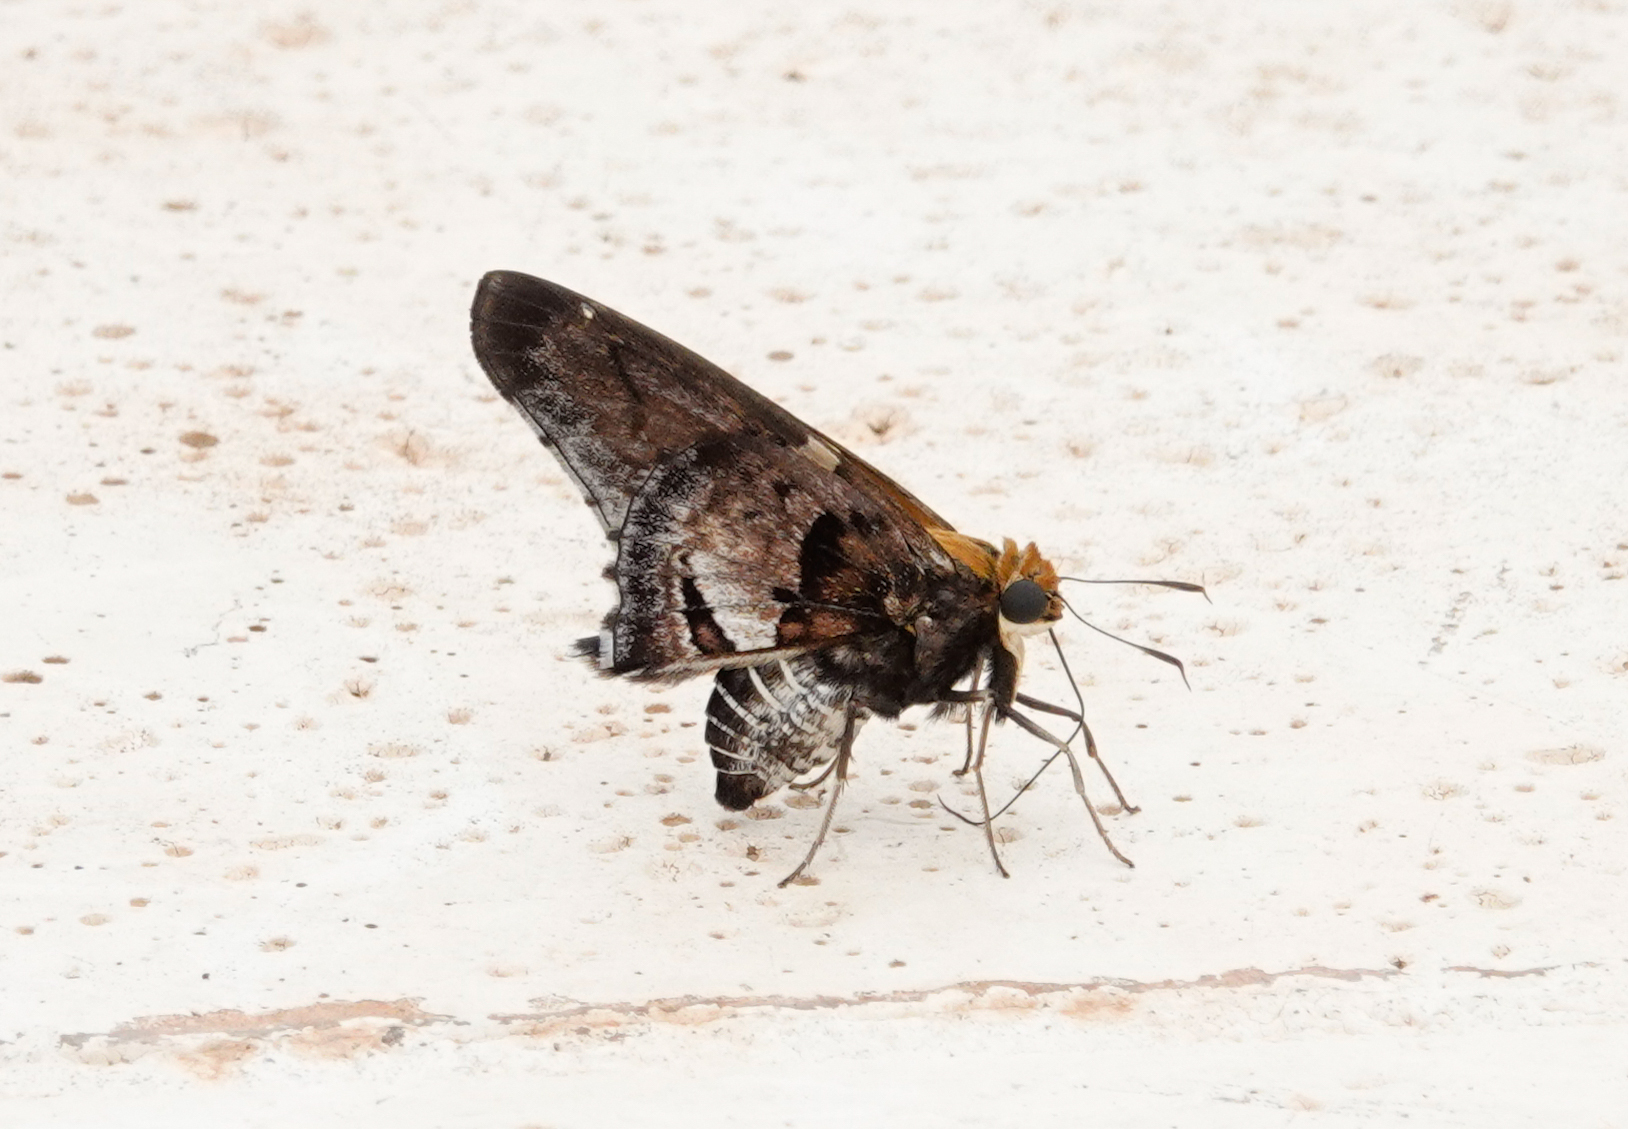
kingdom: Animalia
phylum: Arthropoda
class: Insecta
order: Lepidoptera
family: Hesperiidae
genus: Proteides
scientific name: Proteides mercurius
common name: Mercurial skipper
